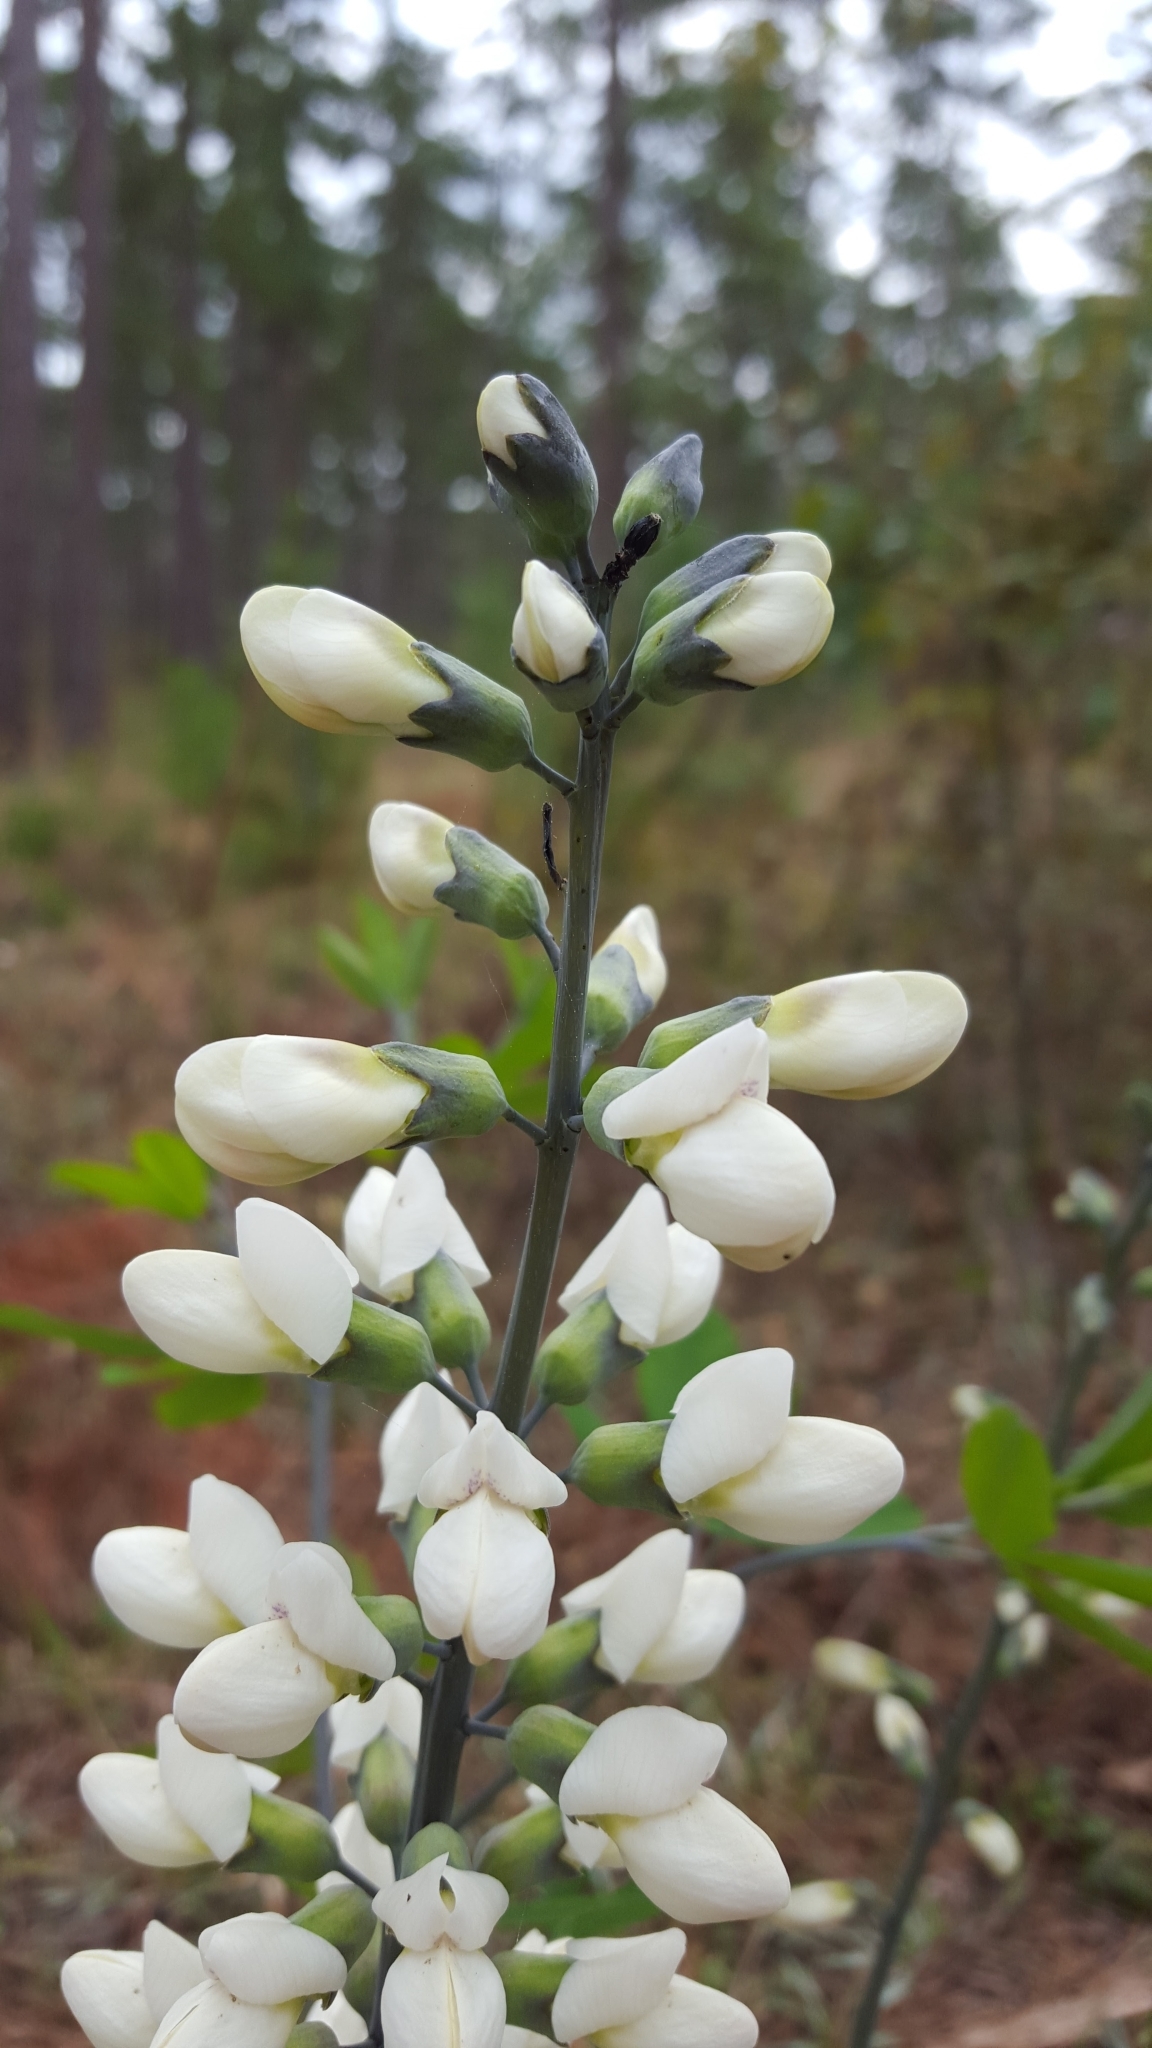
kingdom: Plantae
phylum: Tracheophyta
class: Magnoliopsida
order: Fabales
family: Fabaceae
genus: Baptisia
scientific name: Baptisia alba
